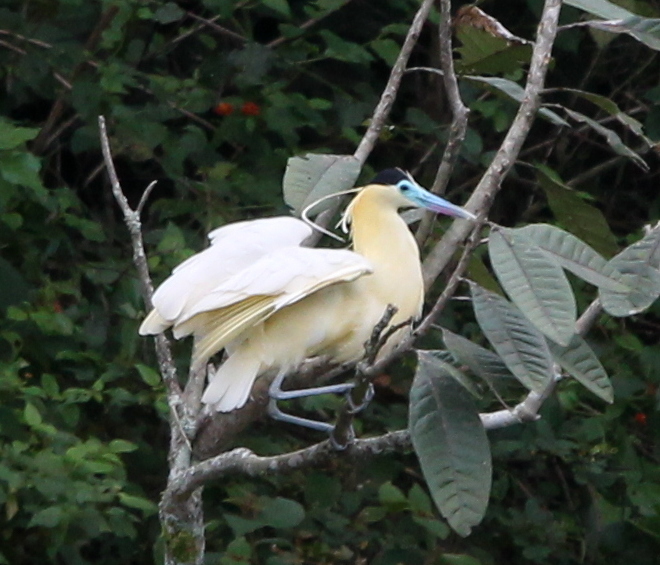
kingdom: Animalia
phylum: Chordata
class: Aves
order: Pelecaniformes
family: Ardeidae
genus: Pilherodius
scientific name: Pilherodius pileatus
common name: Capped heron
